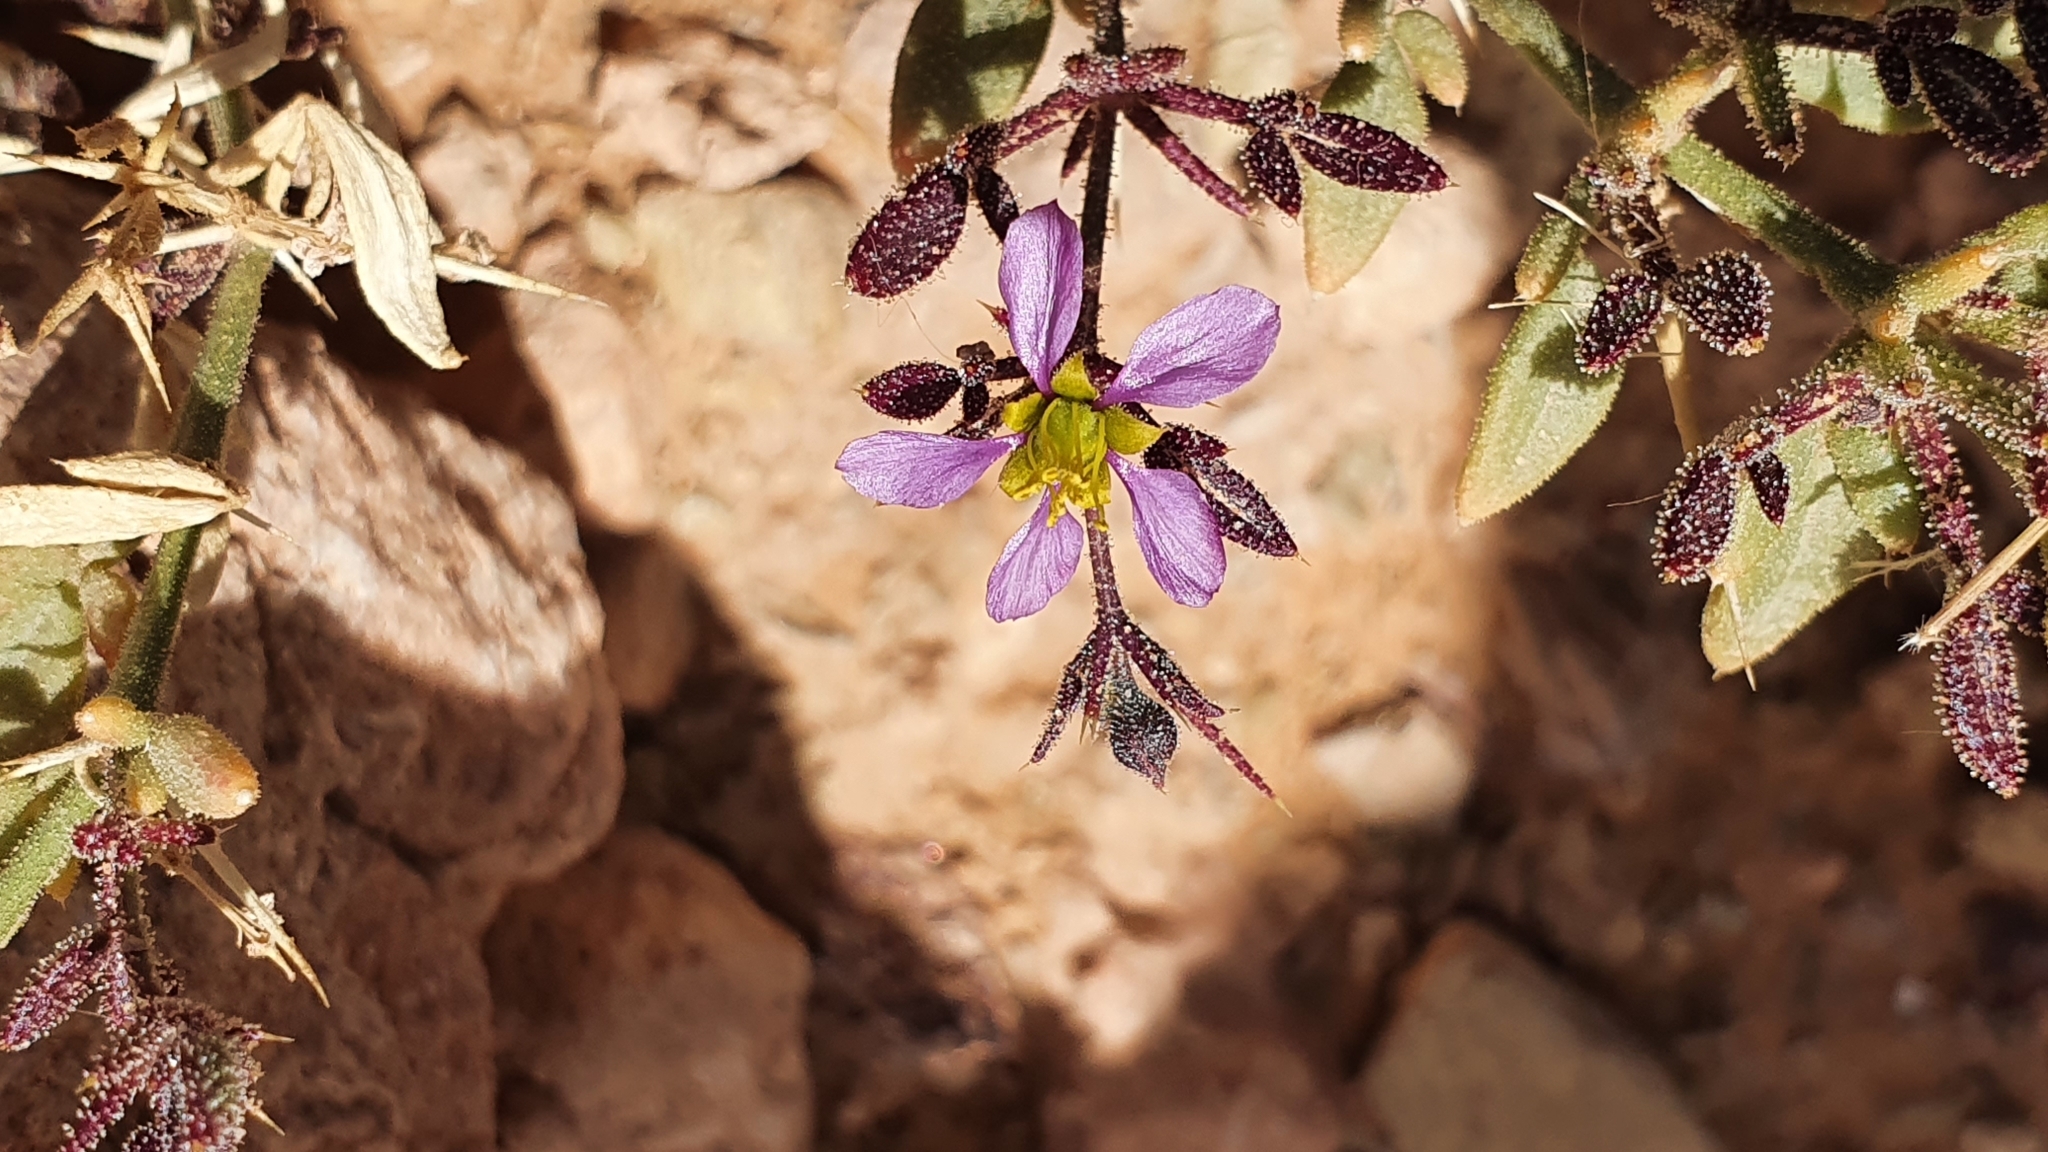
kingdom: Plantae
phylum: Tracheophyta
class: Magnoliopsida
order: Zygophyllales
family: Zygophyllaceae
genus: Fagonia
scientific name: Fagonia longispina
